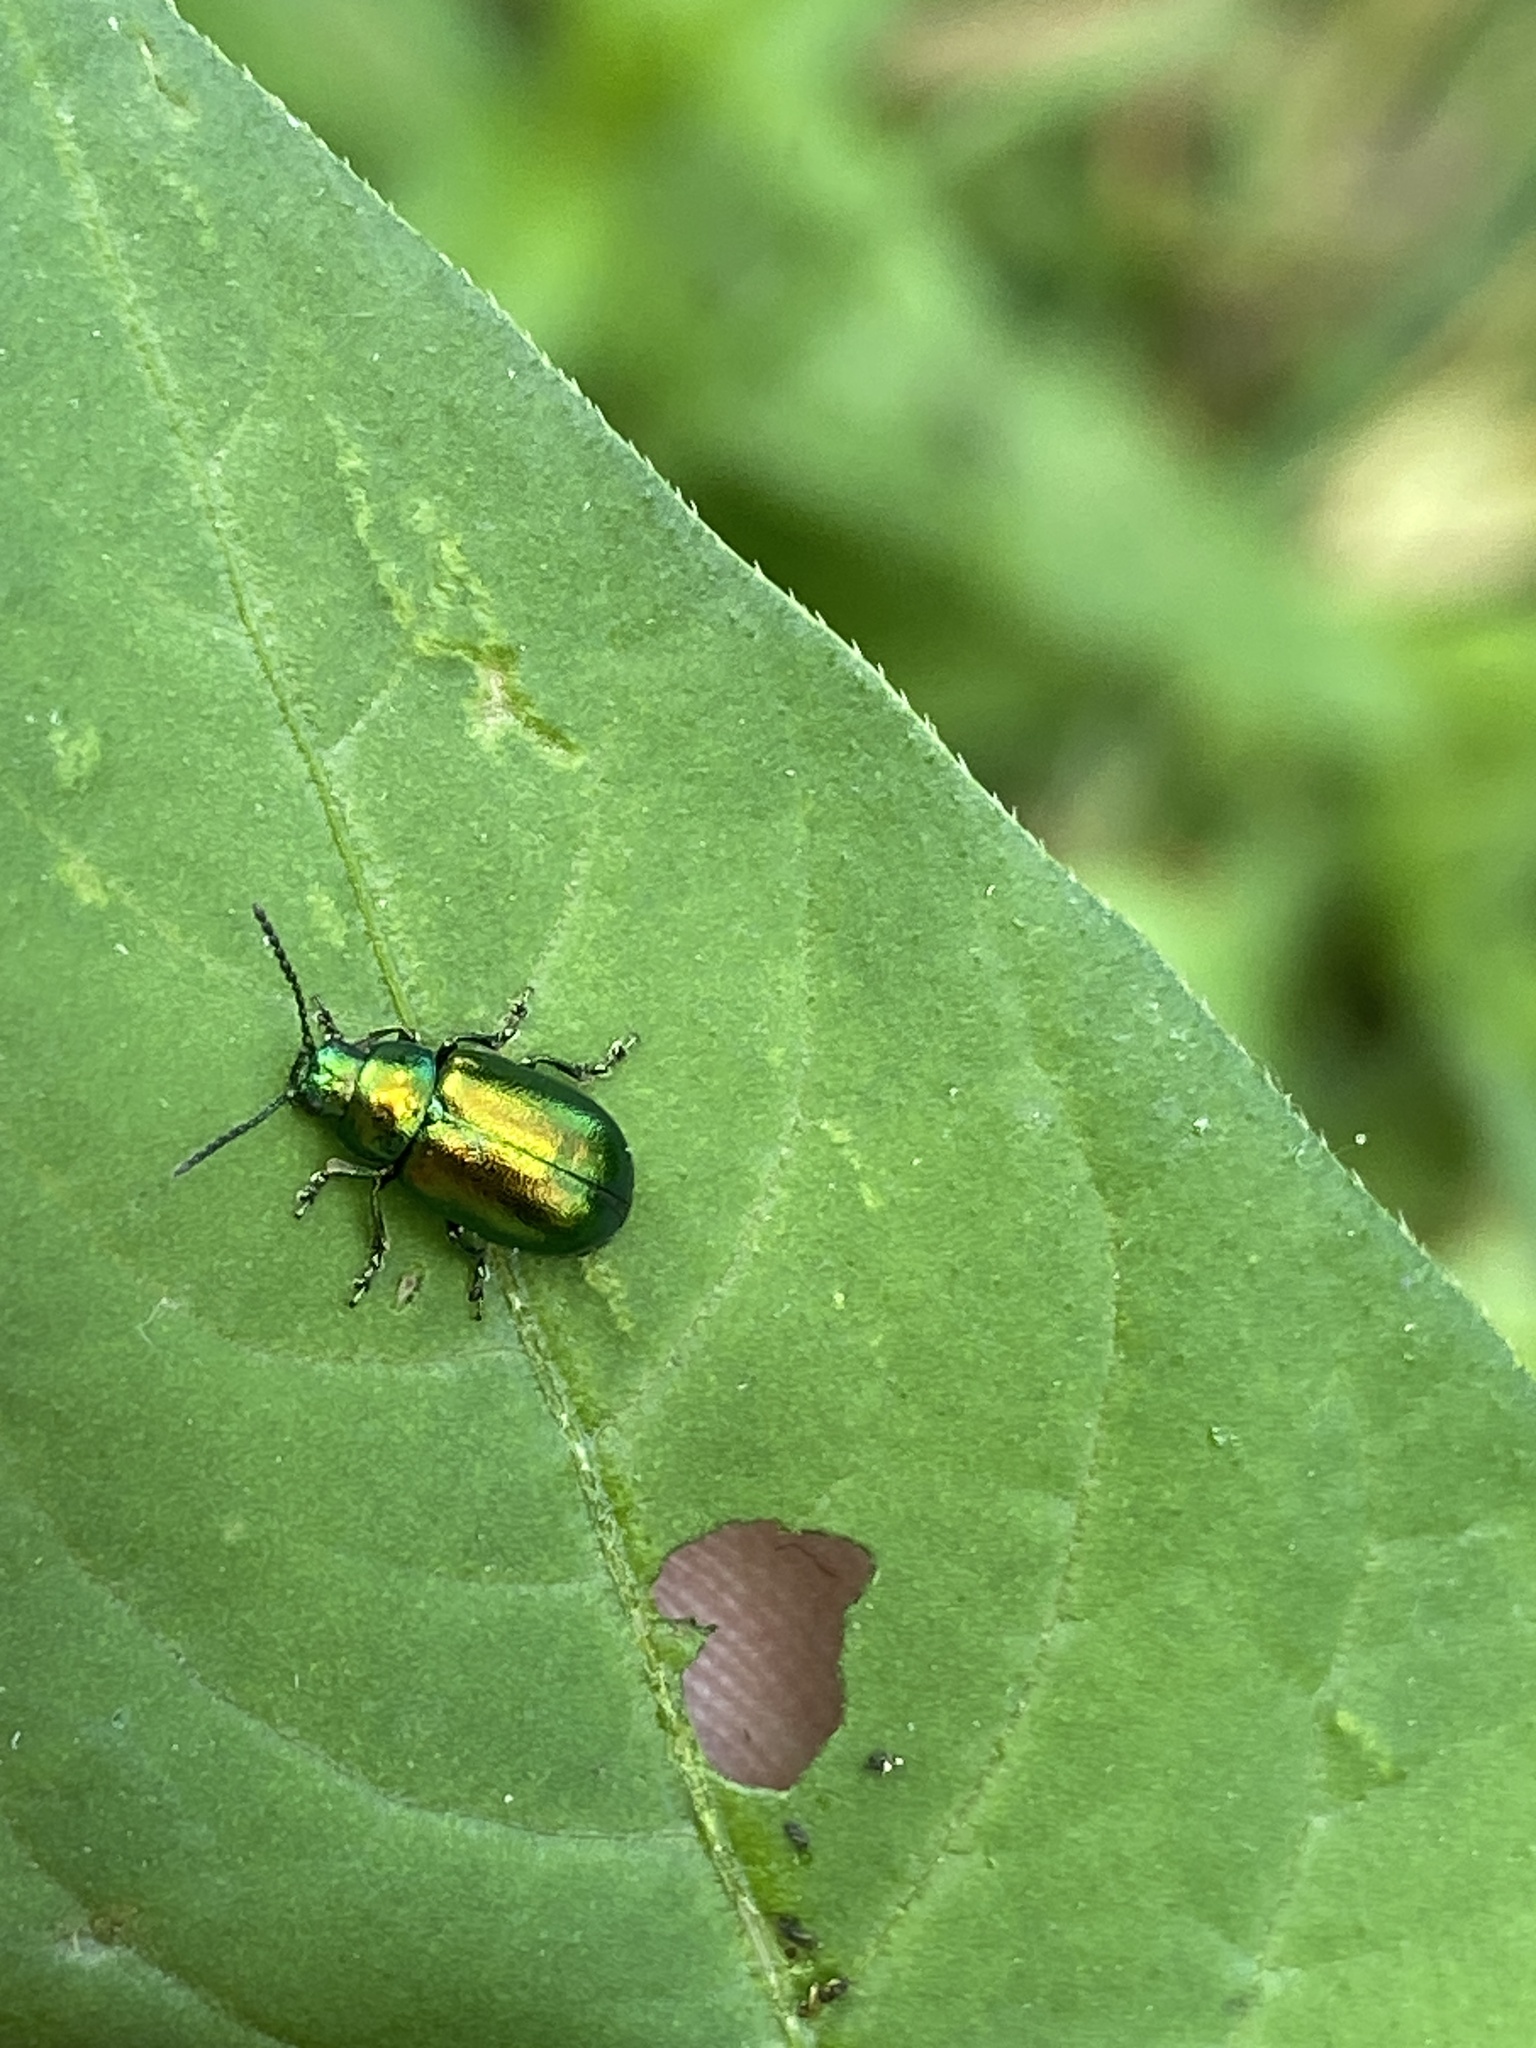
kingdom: Animalia
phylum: Arthropoda
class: Insecta
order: Coleoptera
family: Chrysomelidae
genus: Gastrophysa
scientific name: Gastrophysa viridula
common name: Green dock beetle
